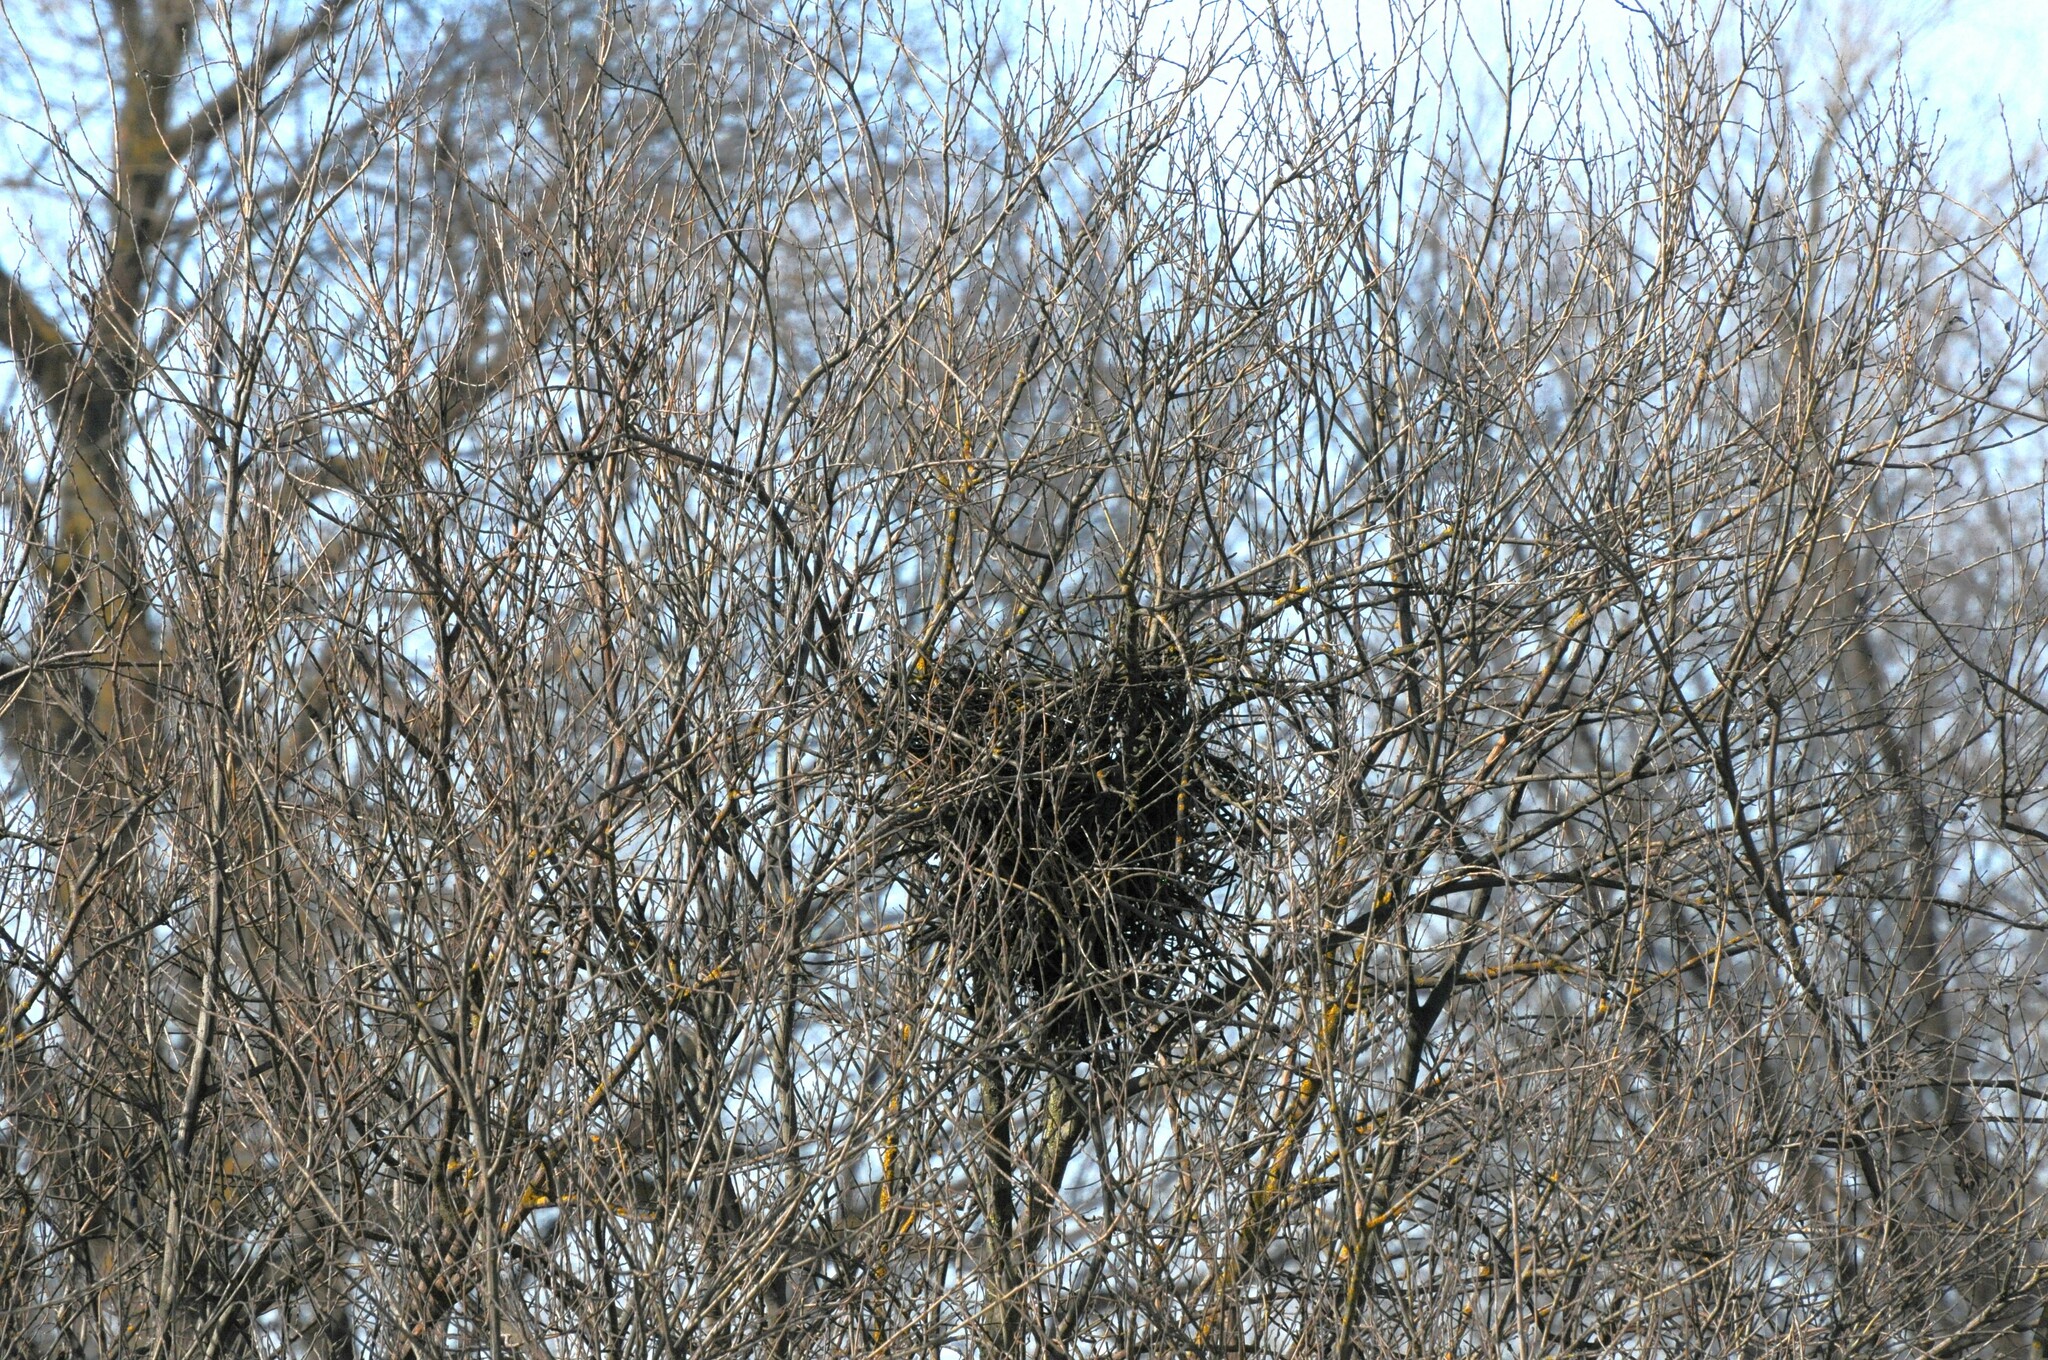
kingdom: Animalia
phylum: Chordata
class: Aves
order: Passeriformes
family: Corvidae
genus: Pica
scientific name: Pica pica
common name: Eurasian magpie
